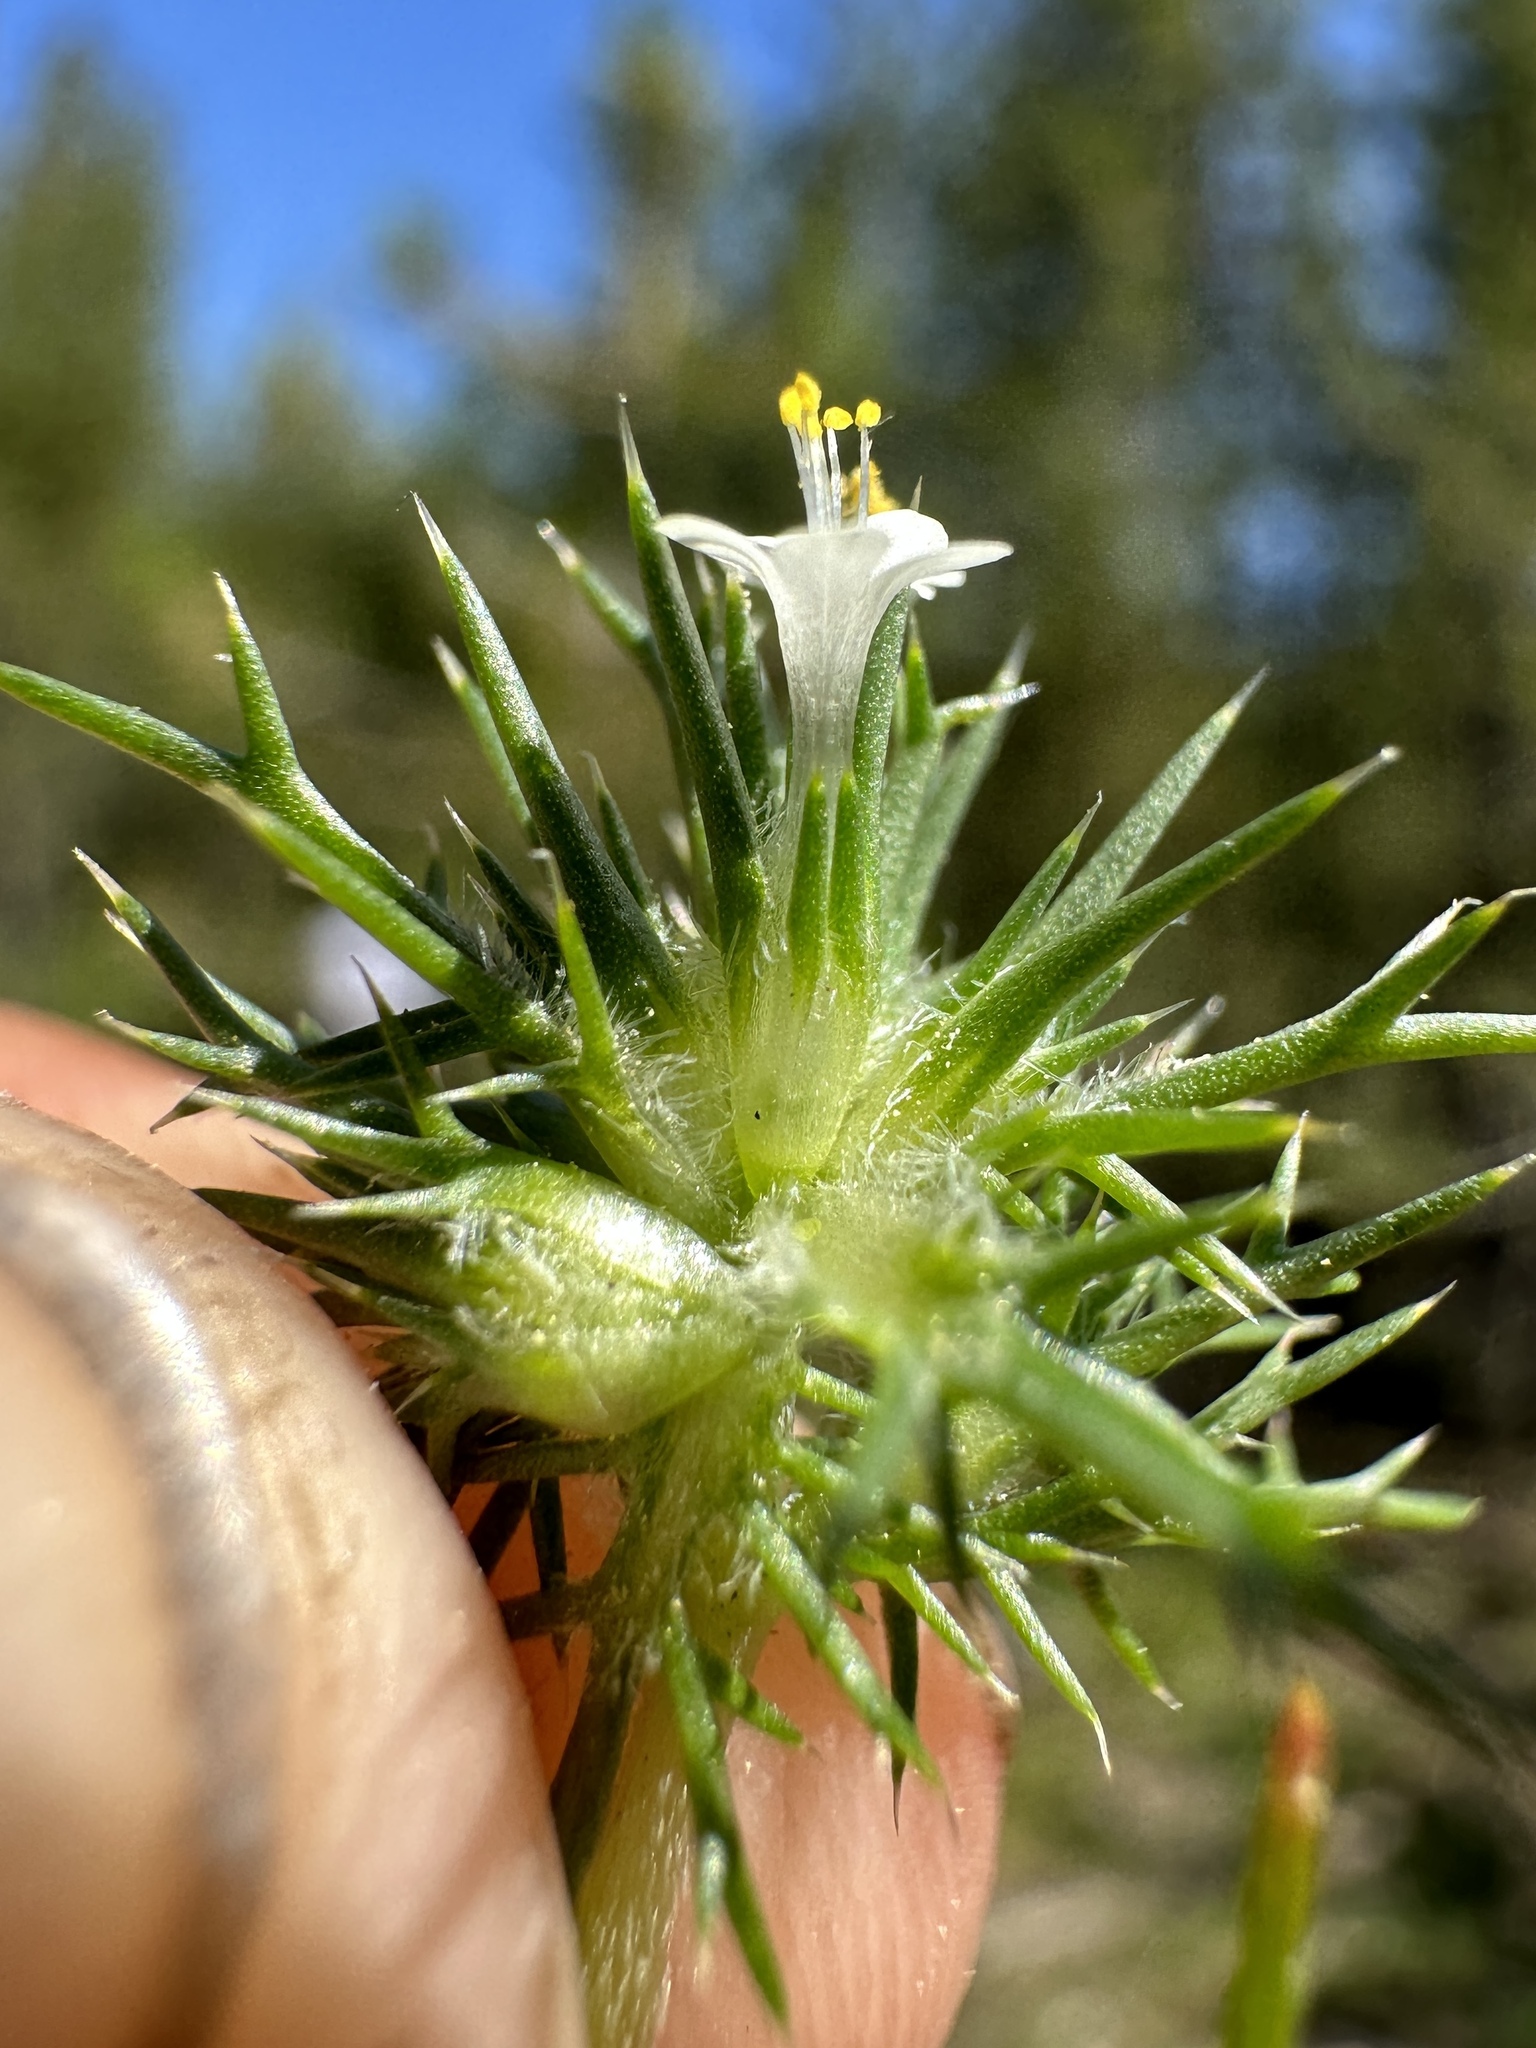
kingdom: Plantae
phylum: Tracheophyta
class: Magnoliopsida
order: Ericales
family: Polemoniaceae
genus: Navarretia
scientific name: Navarretia intertexta
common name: Needle-leaved navarretia
